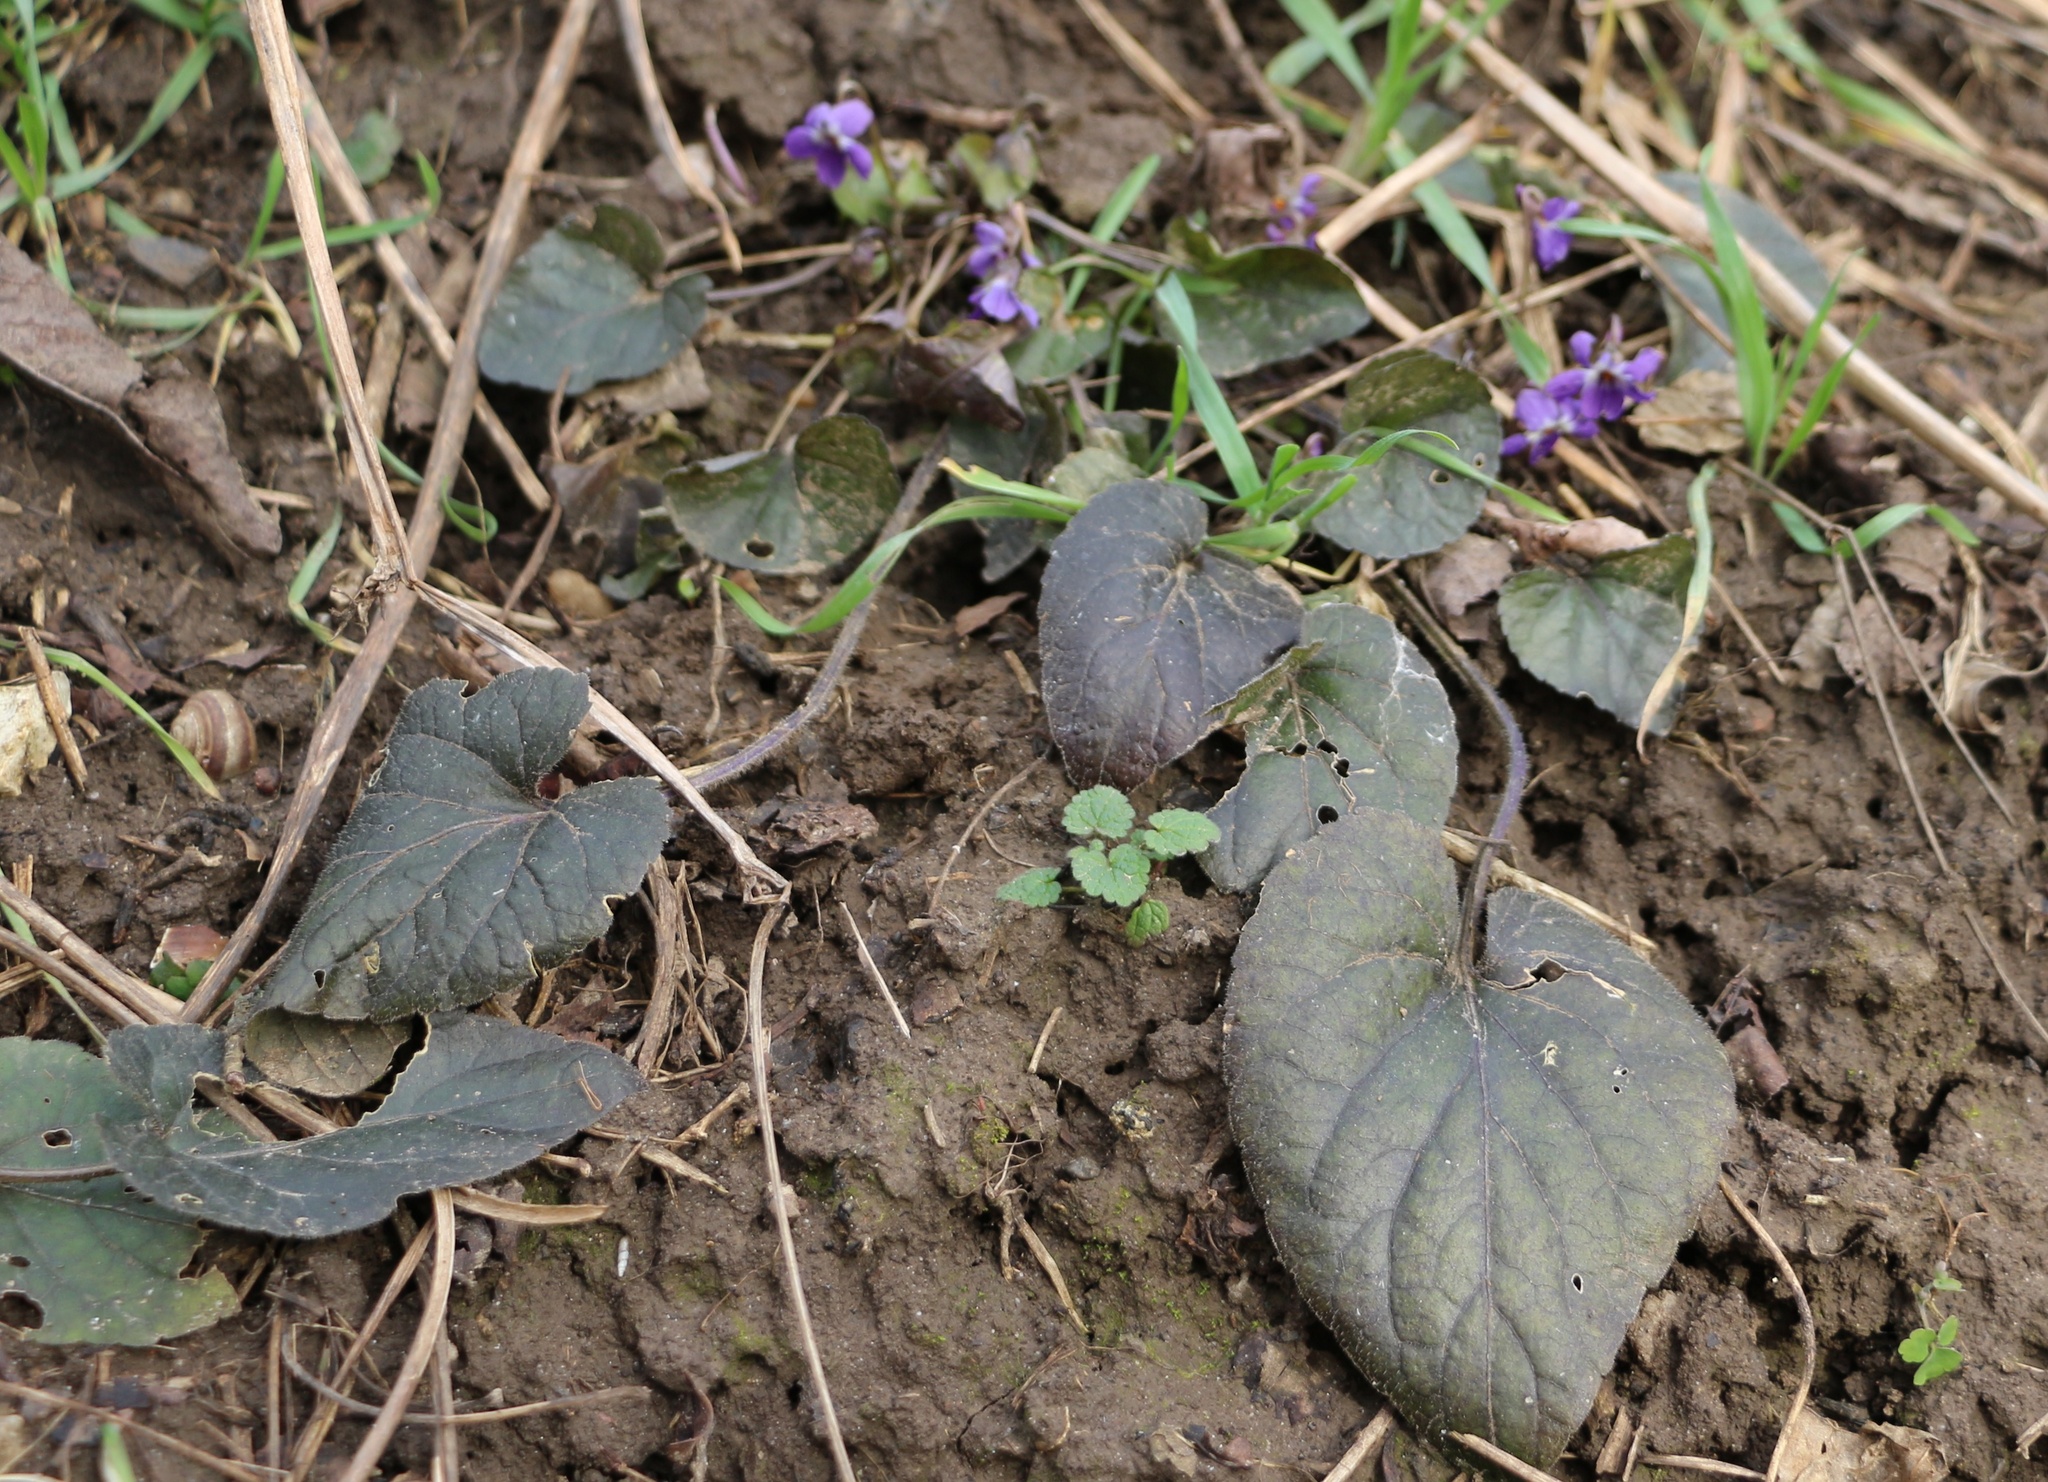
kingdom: Plantae
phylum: Tracheophyta
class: Magnoliopsida
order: Malpighiales
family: Violaceae
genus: Viola
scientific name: Viola odorata
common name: Sweet violet
